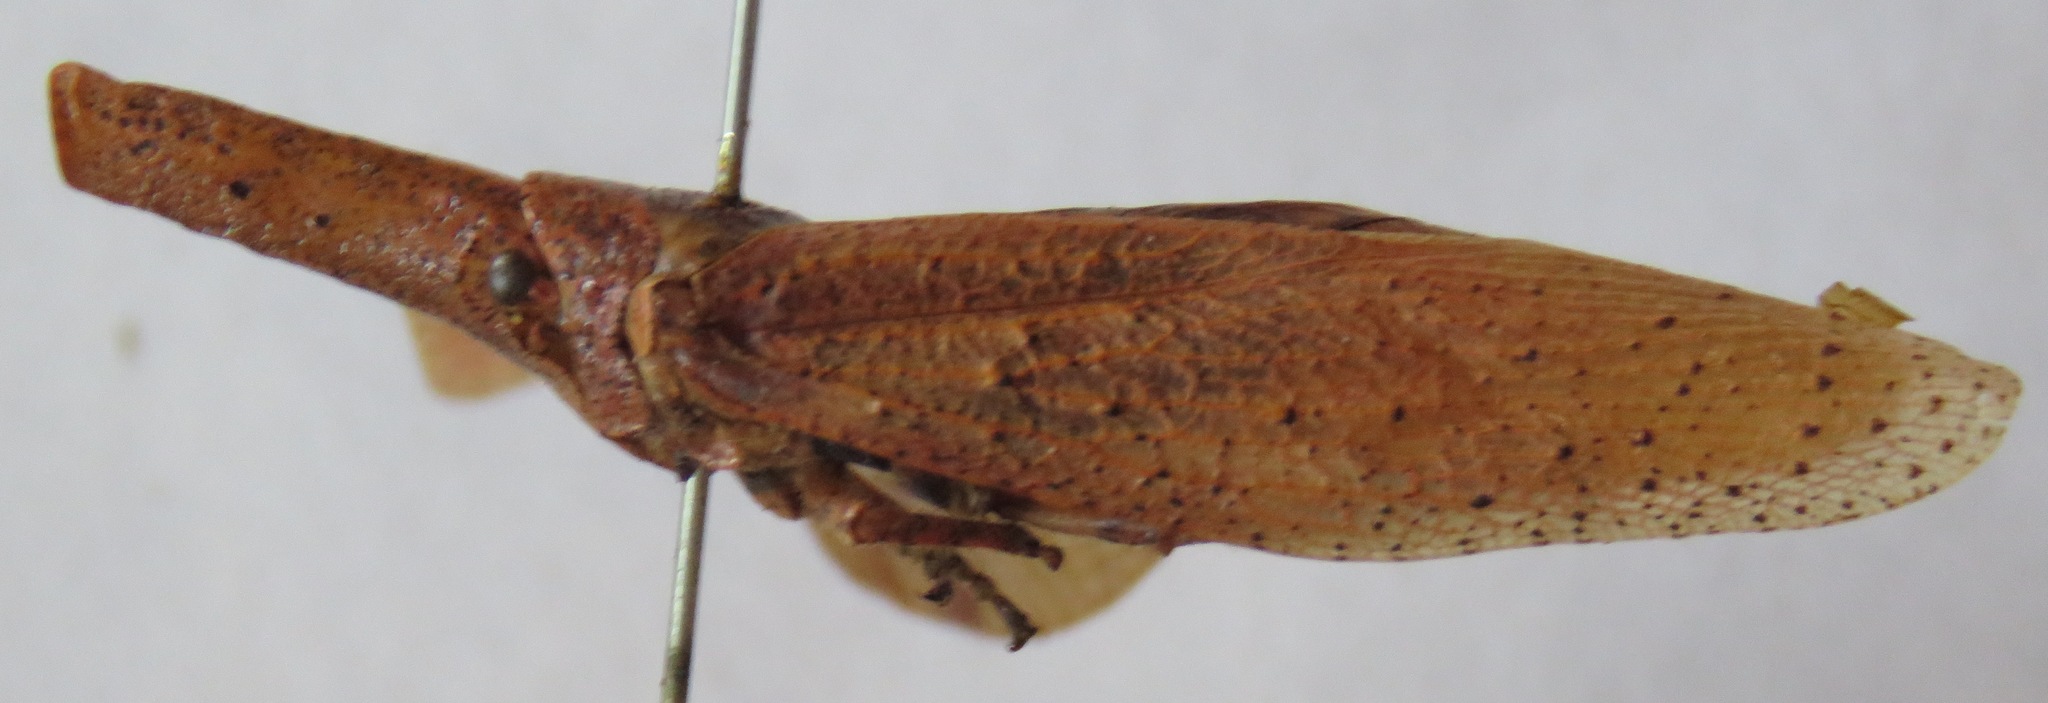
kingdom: Animalia
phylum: Arthropoda
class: Insecta
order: Hemiptera
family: Fulgoridae
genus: Zanna
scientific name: Zanna tenebrosa
